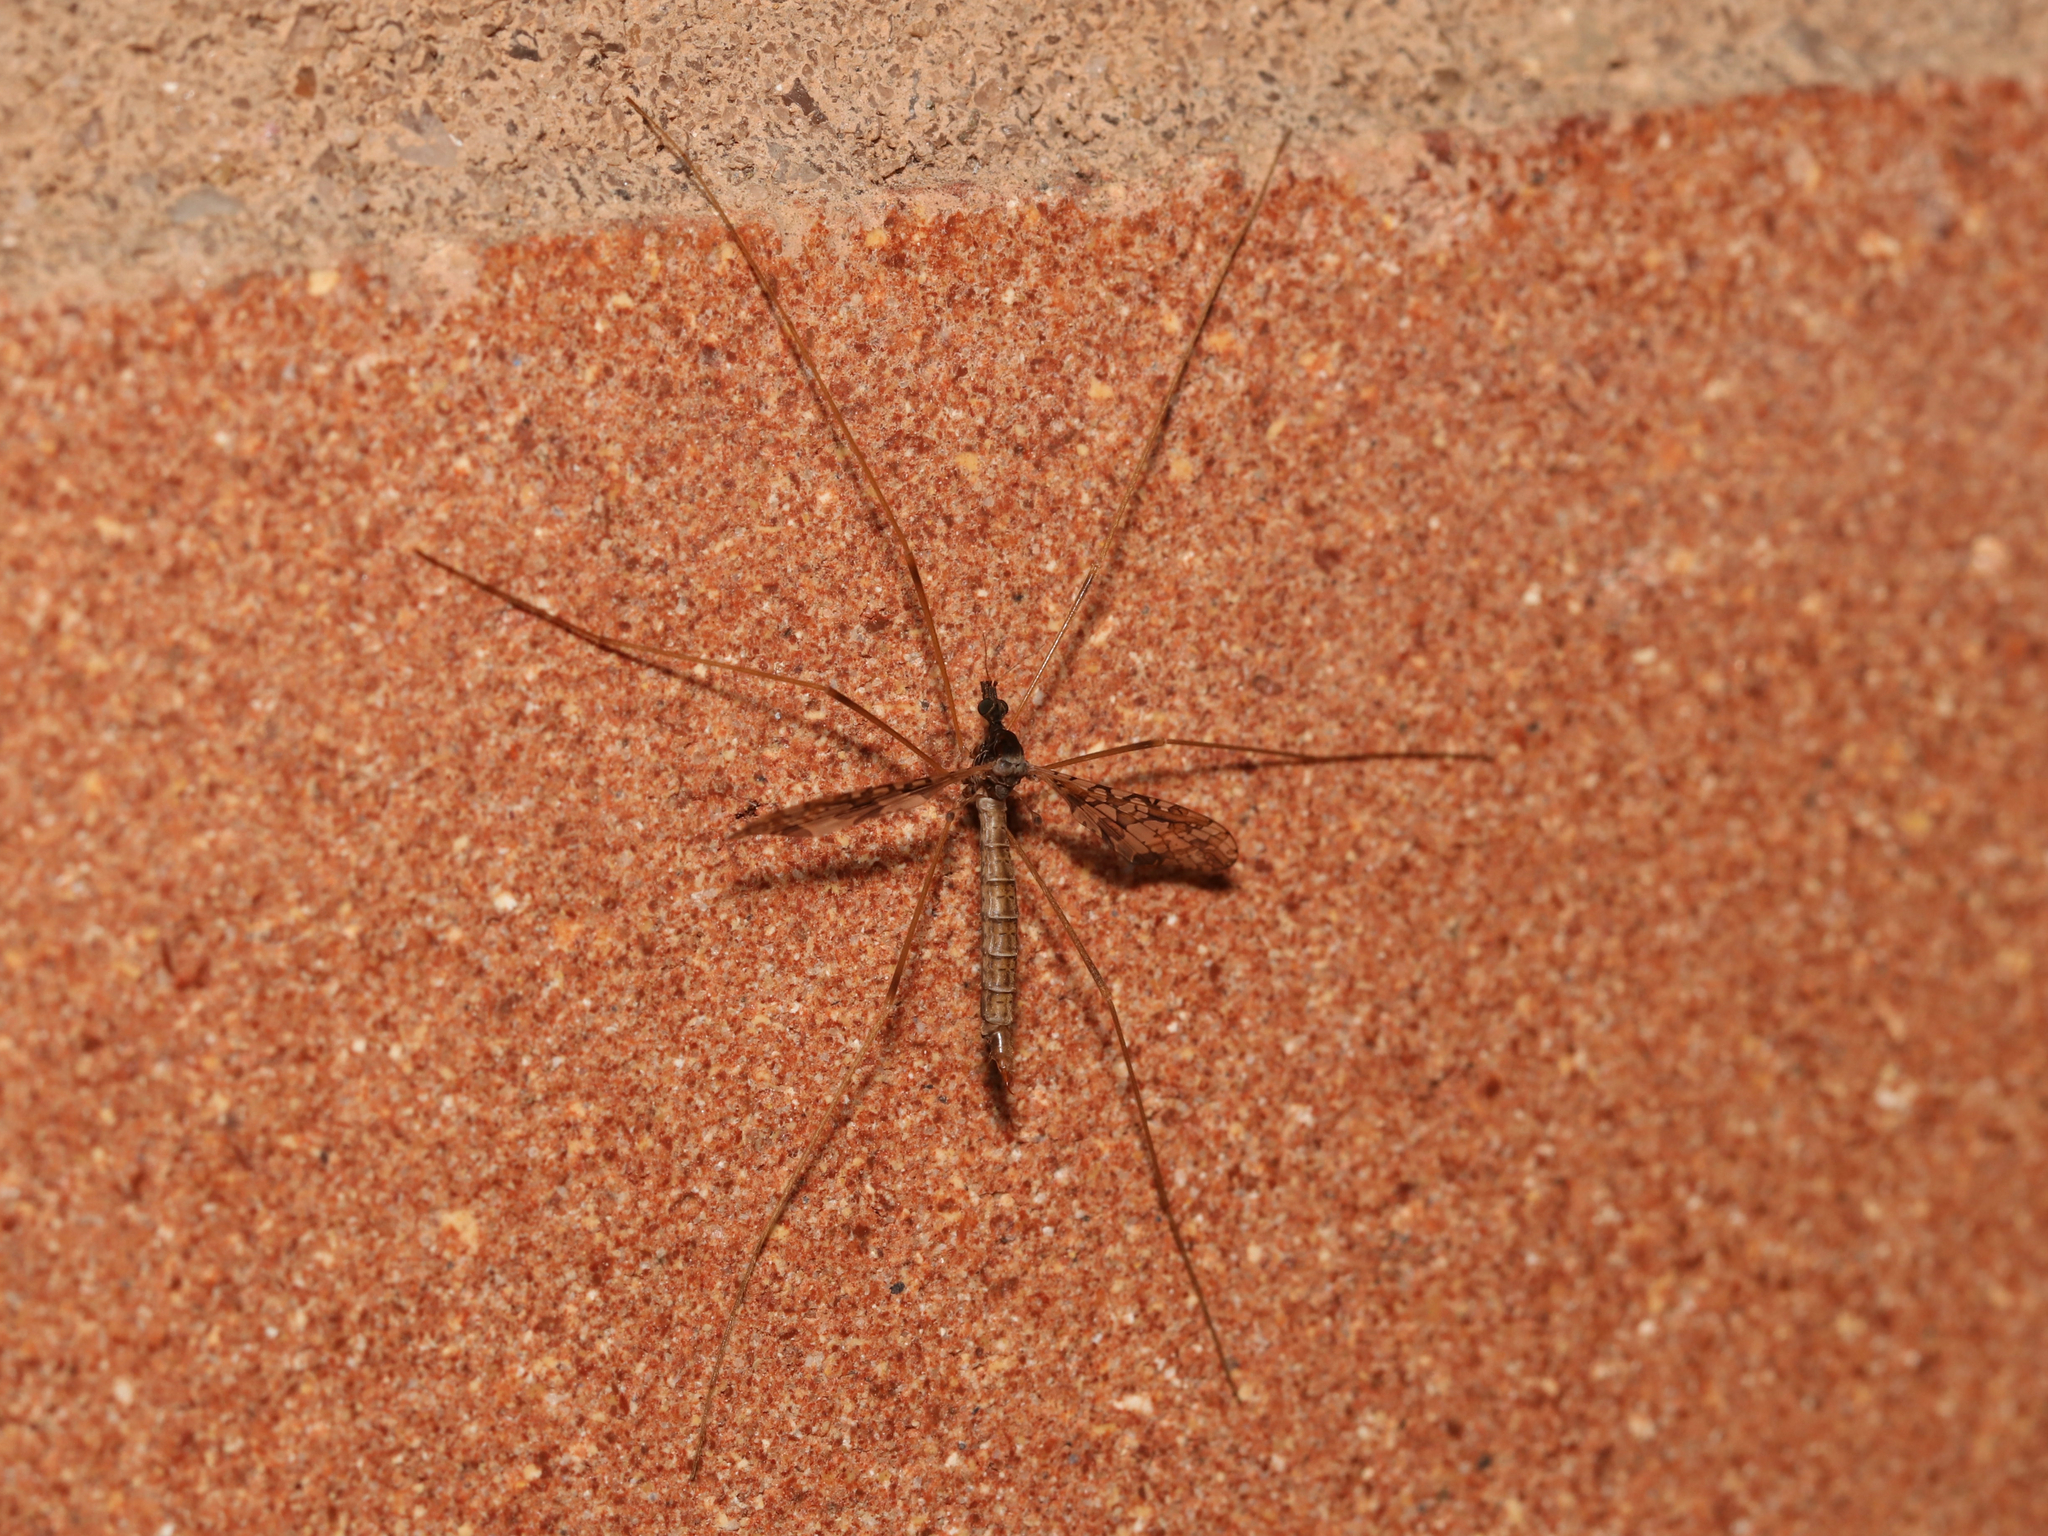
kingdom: Animalia
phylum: Arthropoda
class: Insecta
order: Diptera
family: Limoniidae
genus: Epiphragma
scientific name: Epiphragma solatrix
